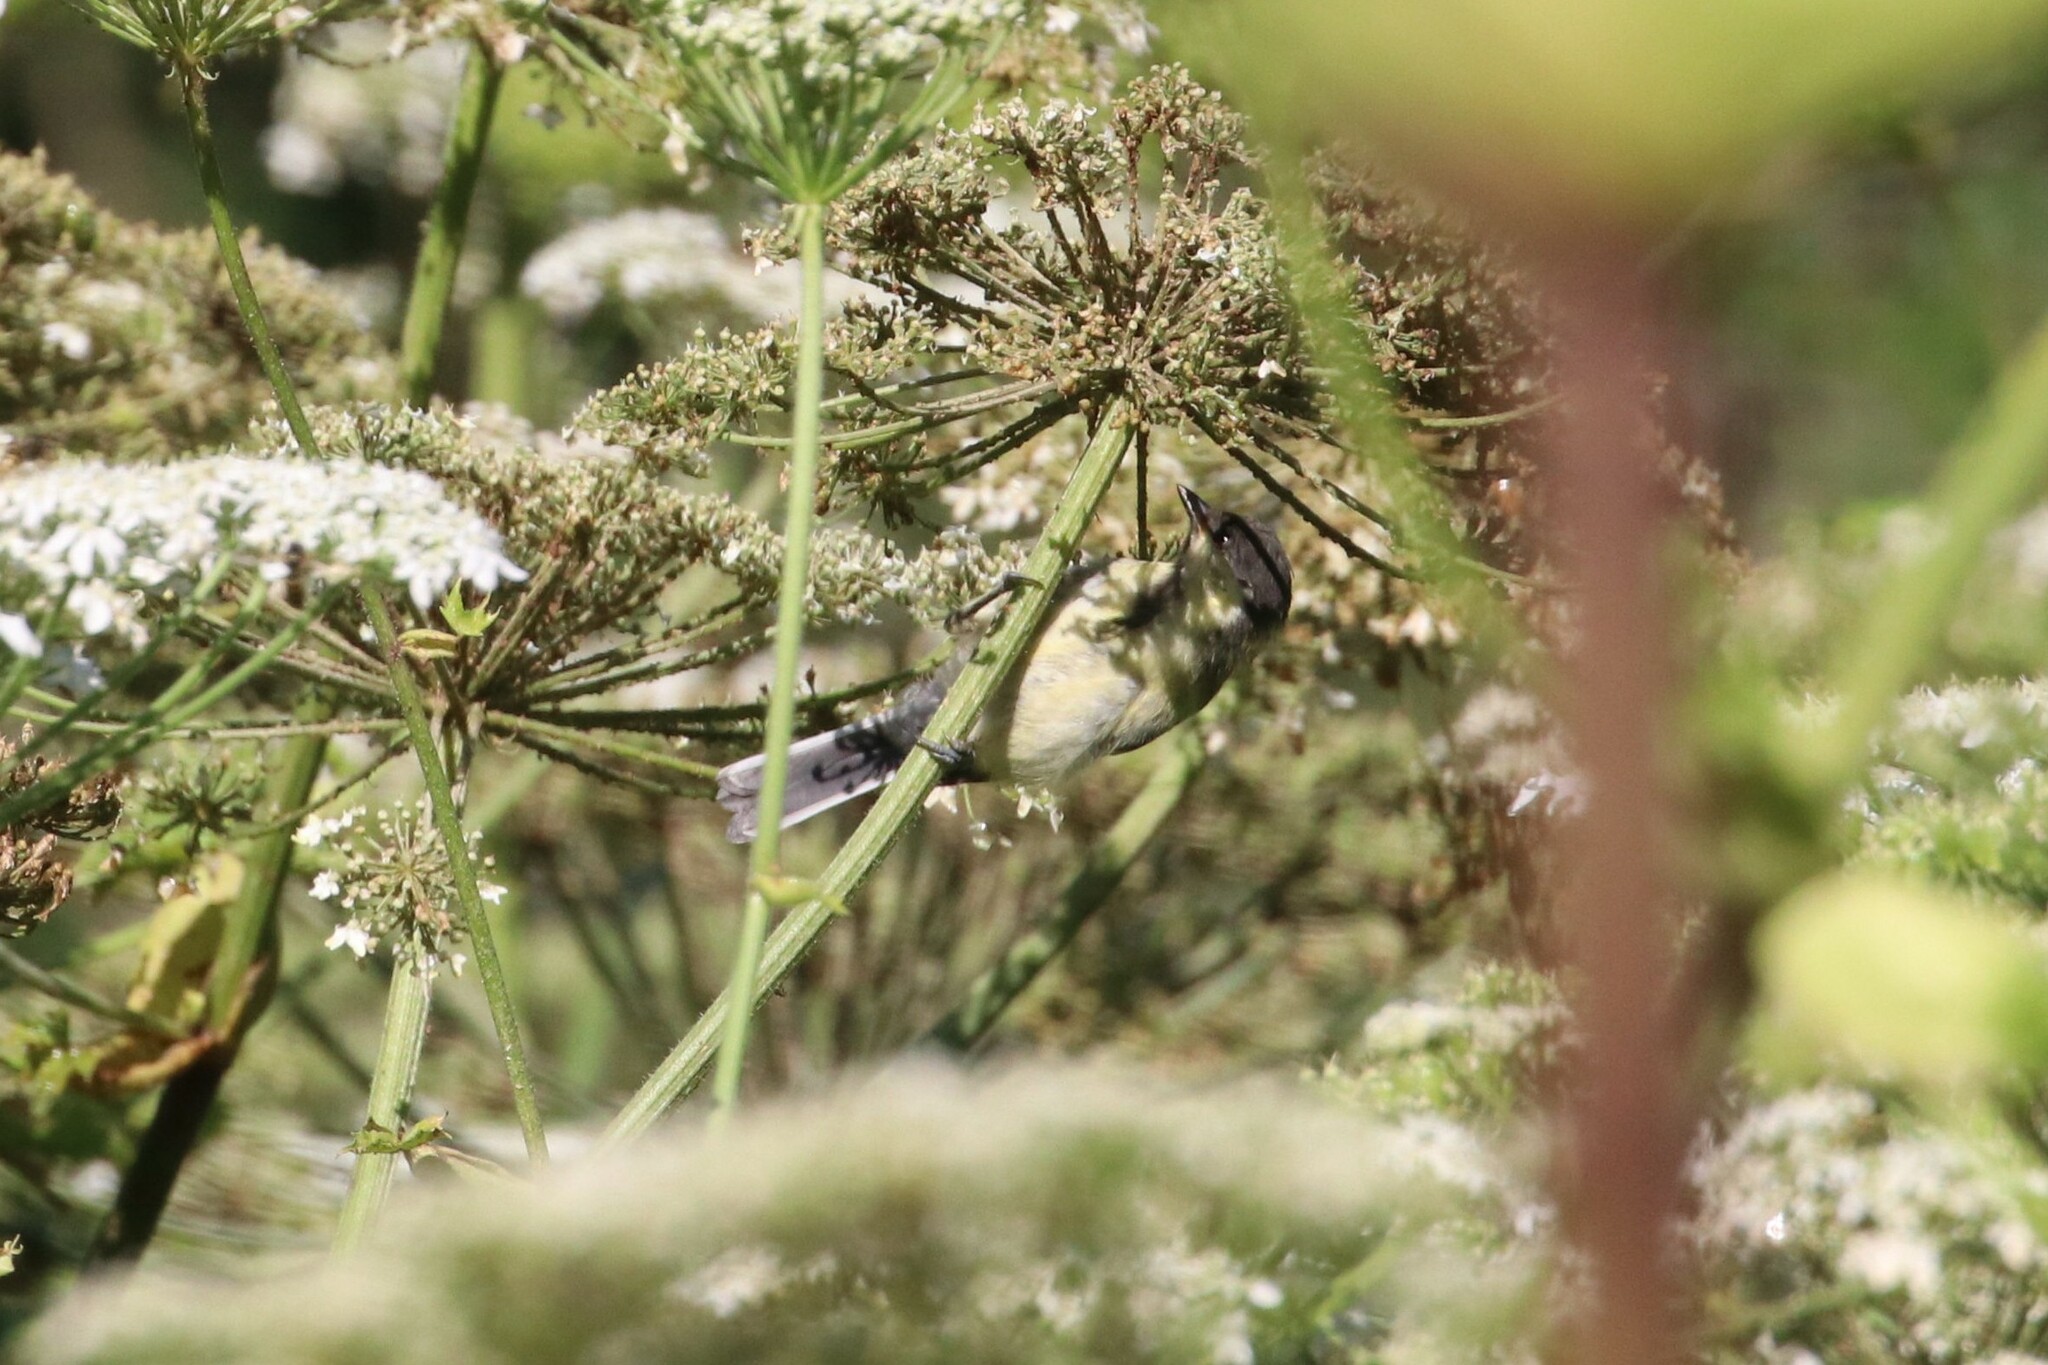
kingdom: Animalia
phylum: Chordata
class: Aves
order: Passeriformes
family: Paridae
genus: Parus
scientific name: Parus major
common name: Great tit
